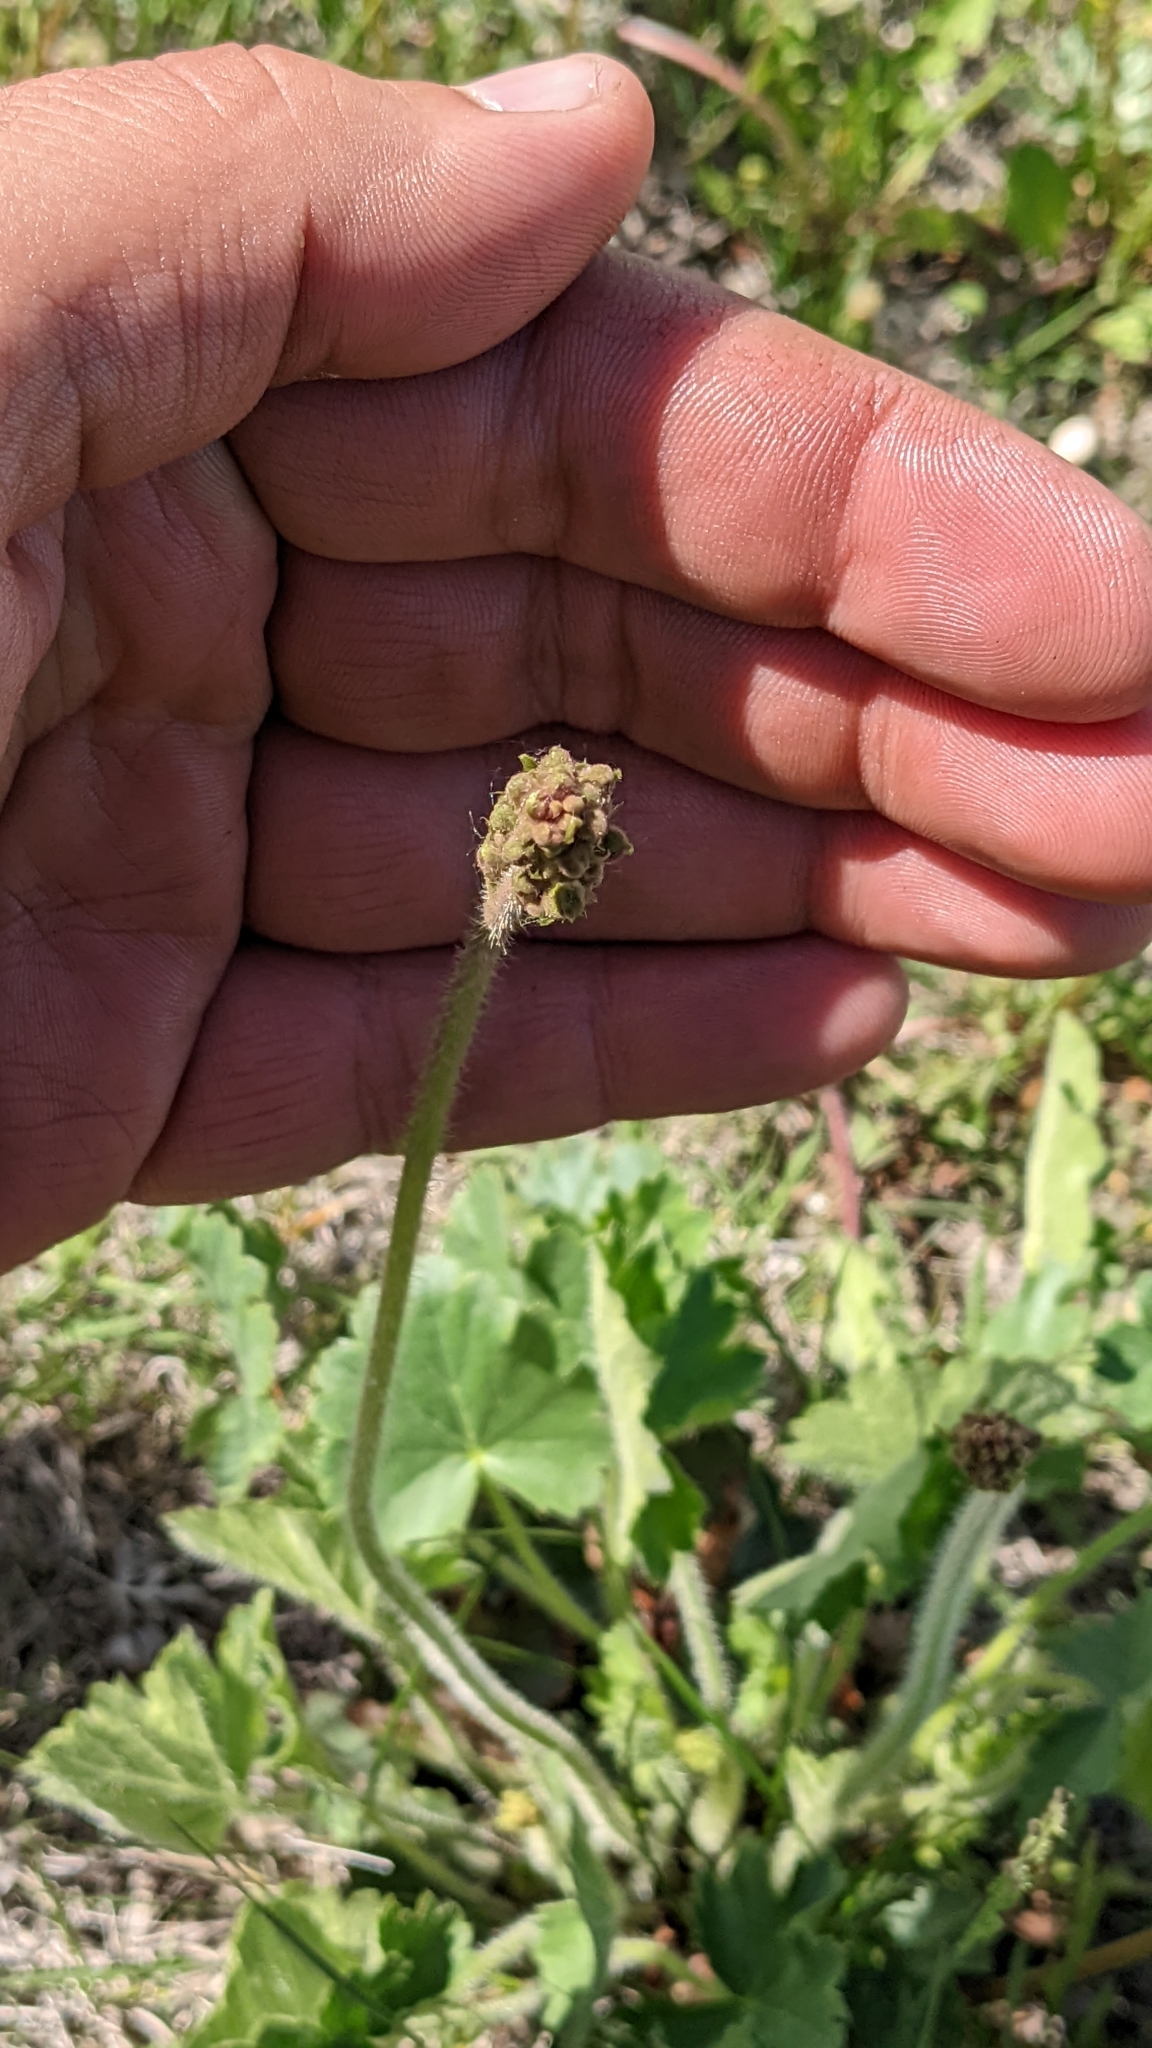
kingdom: Plantae
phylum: Tracheophyta
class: Magnoliopsida
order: Saxifragales
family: Saxifragaceae
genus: Heuchera
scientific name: Heuchera richardsonii
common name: Richardson's alumroot
